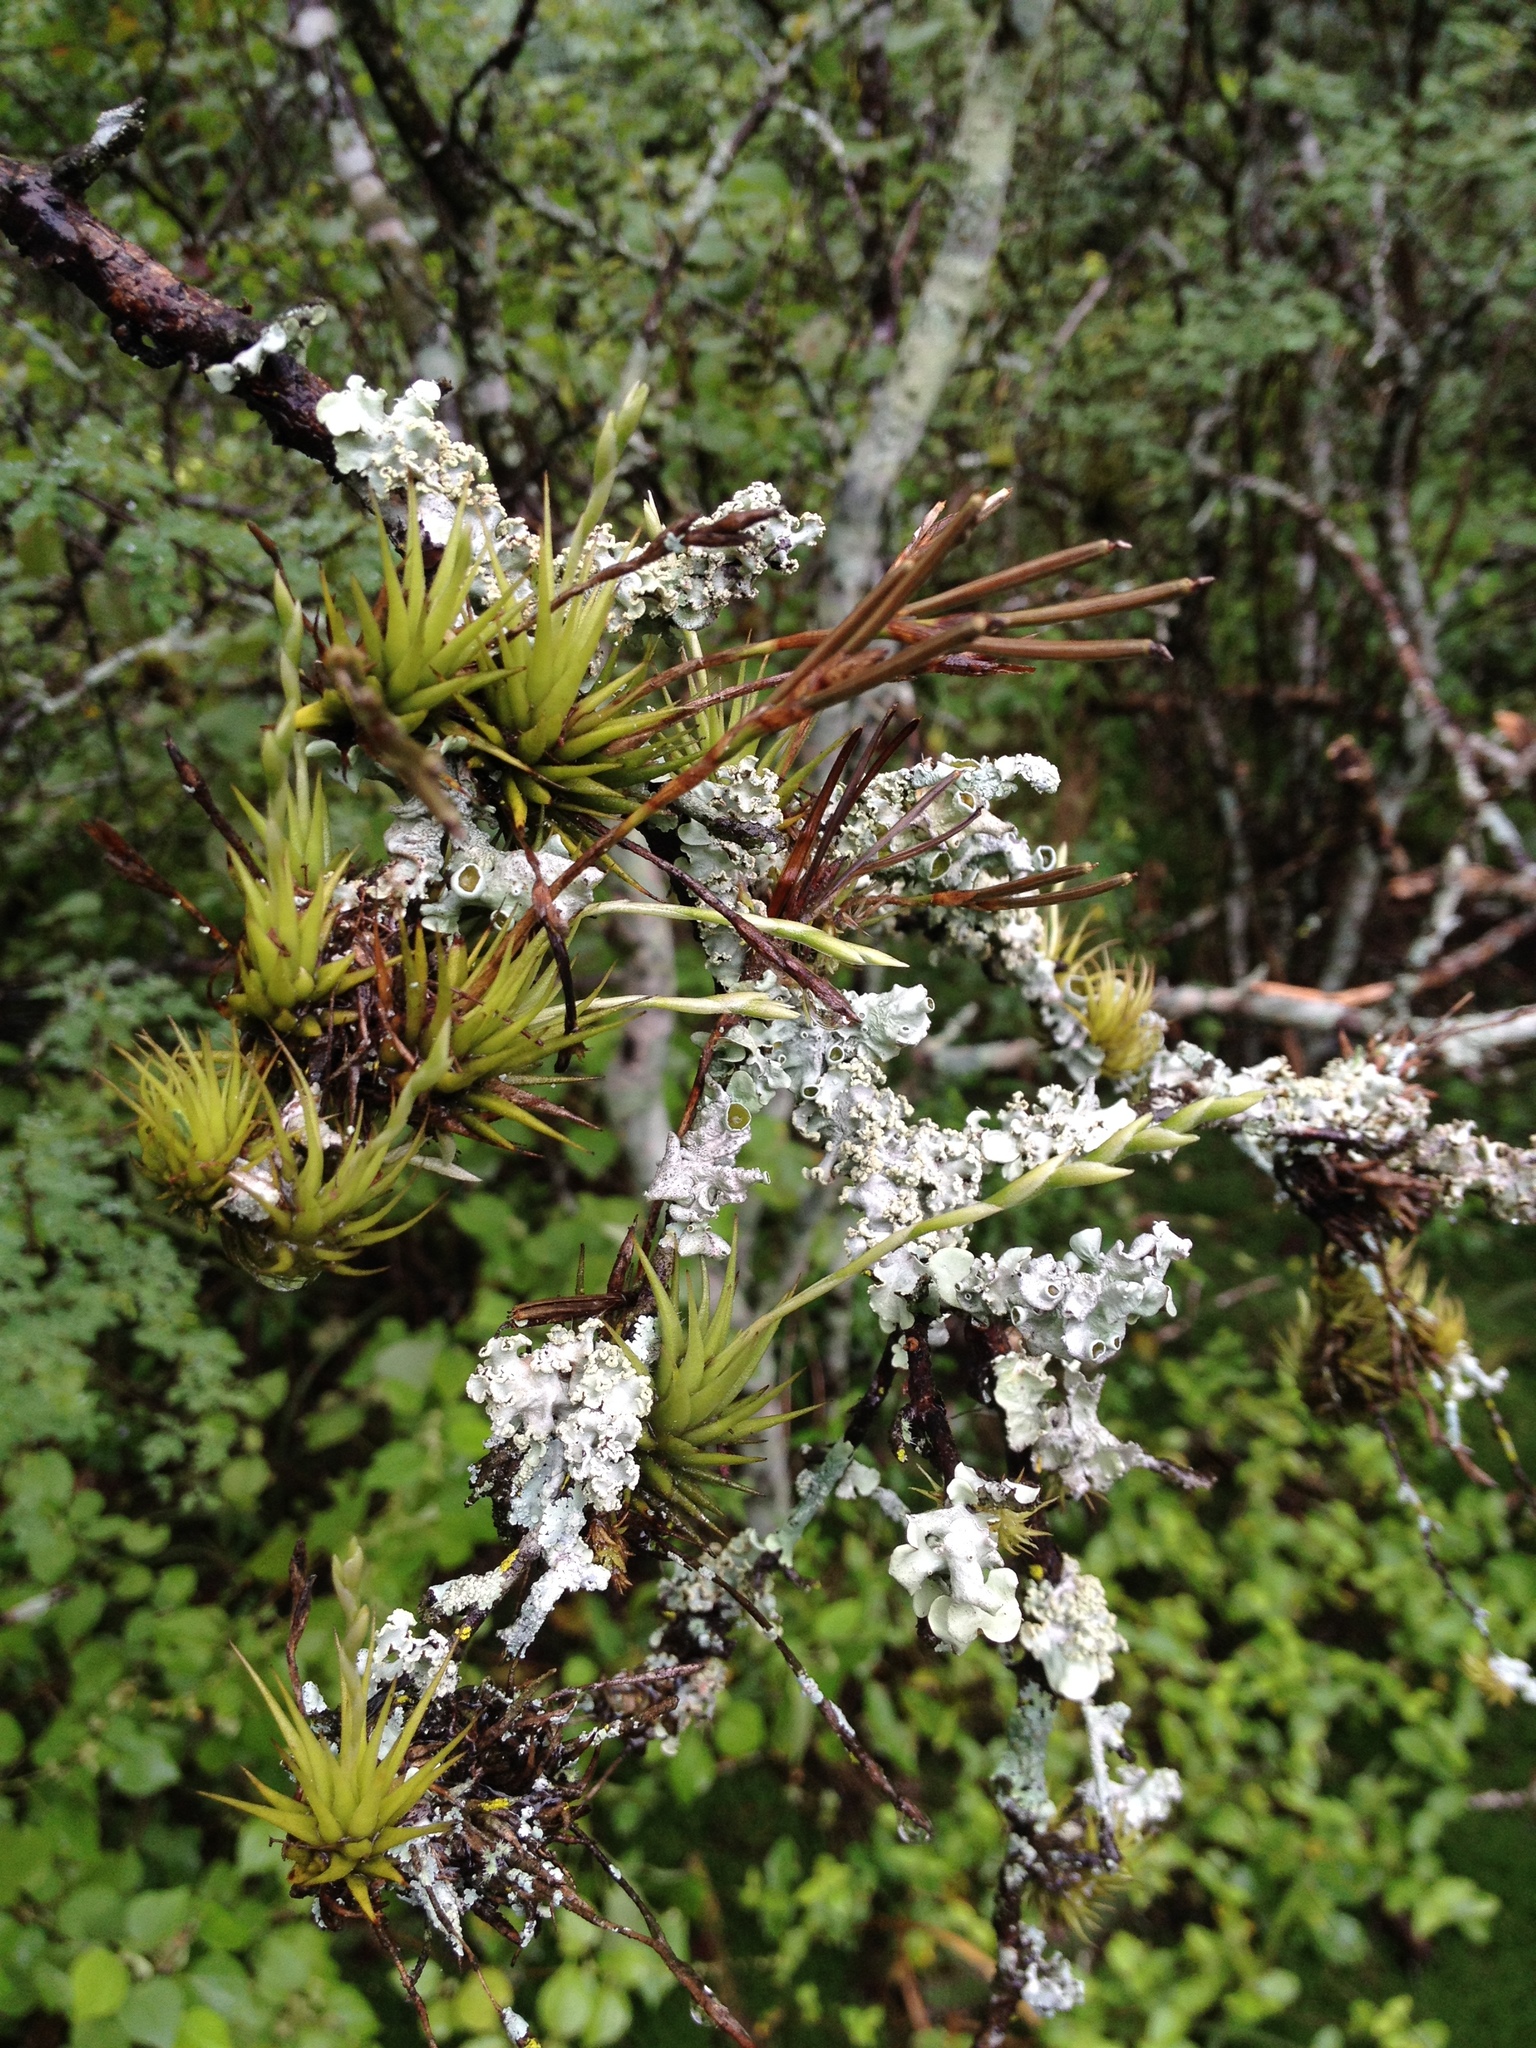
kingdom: Plantae
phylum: Tracheophyta
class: Liliopsida
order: Poales
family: Bromeliaceae
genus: Tillandsia
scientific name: Tillandsia loliacea
